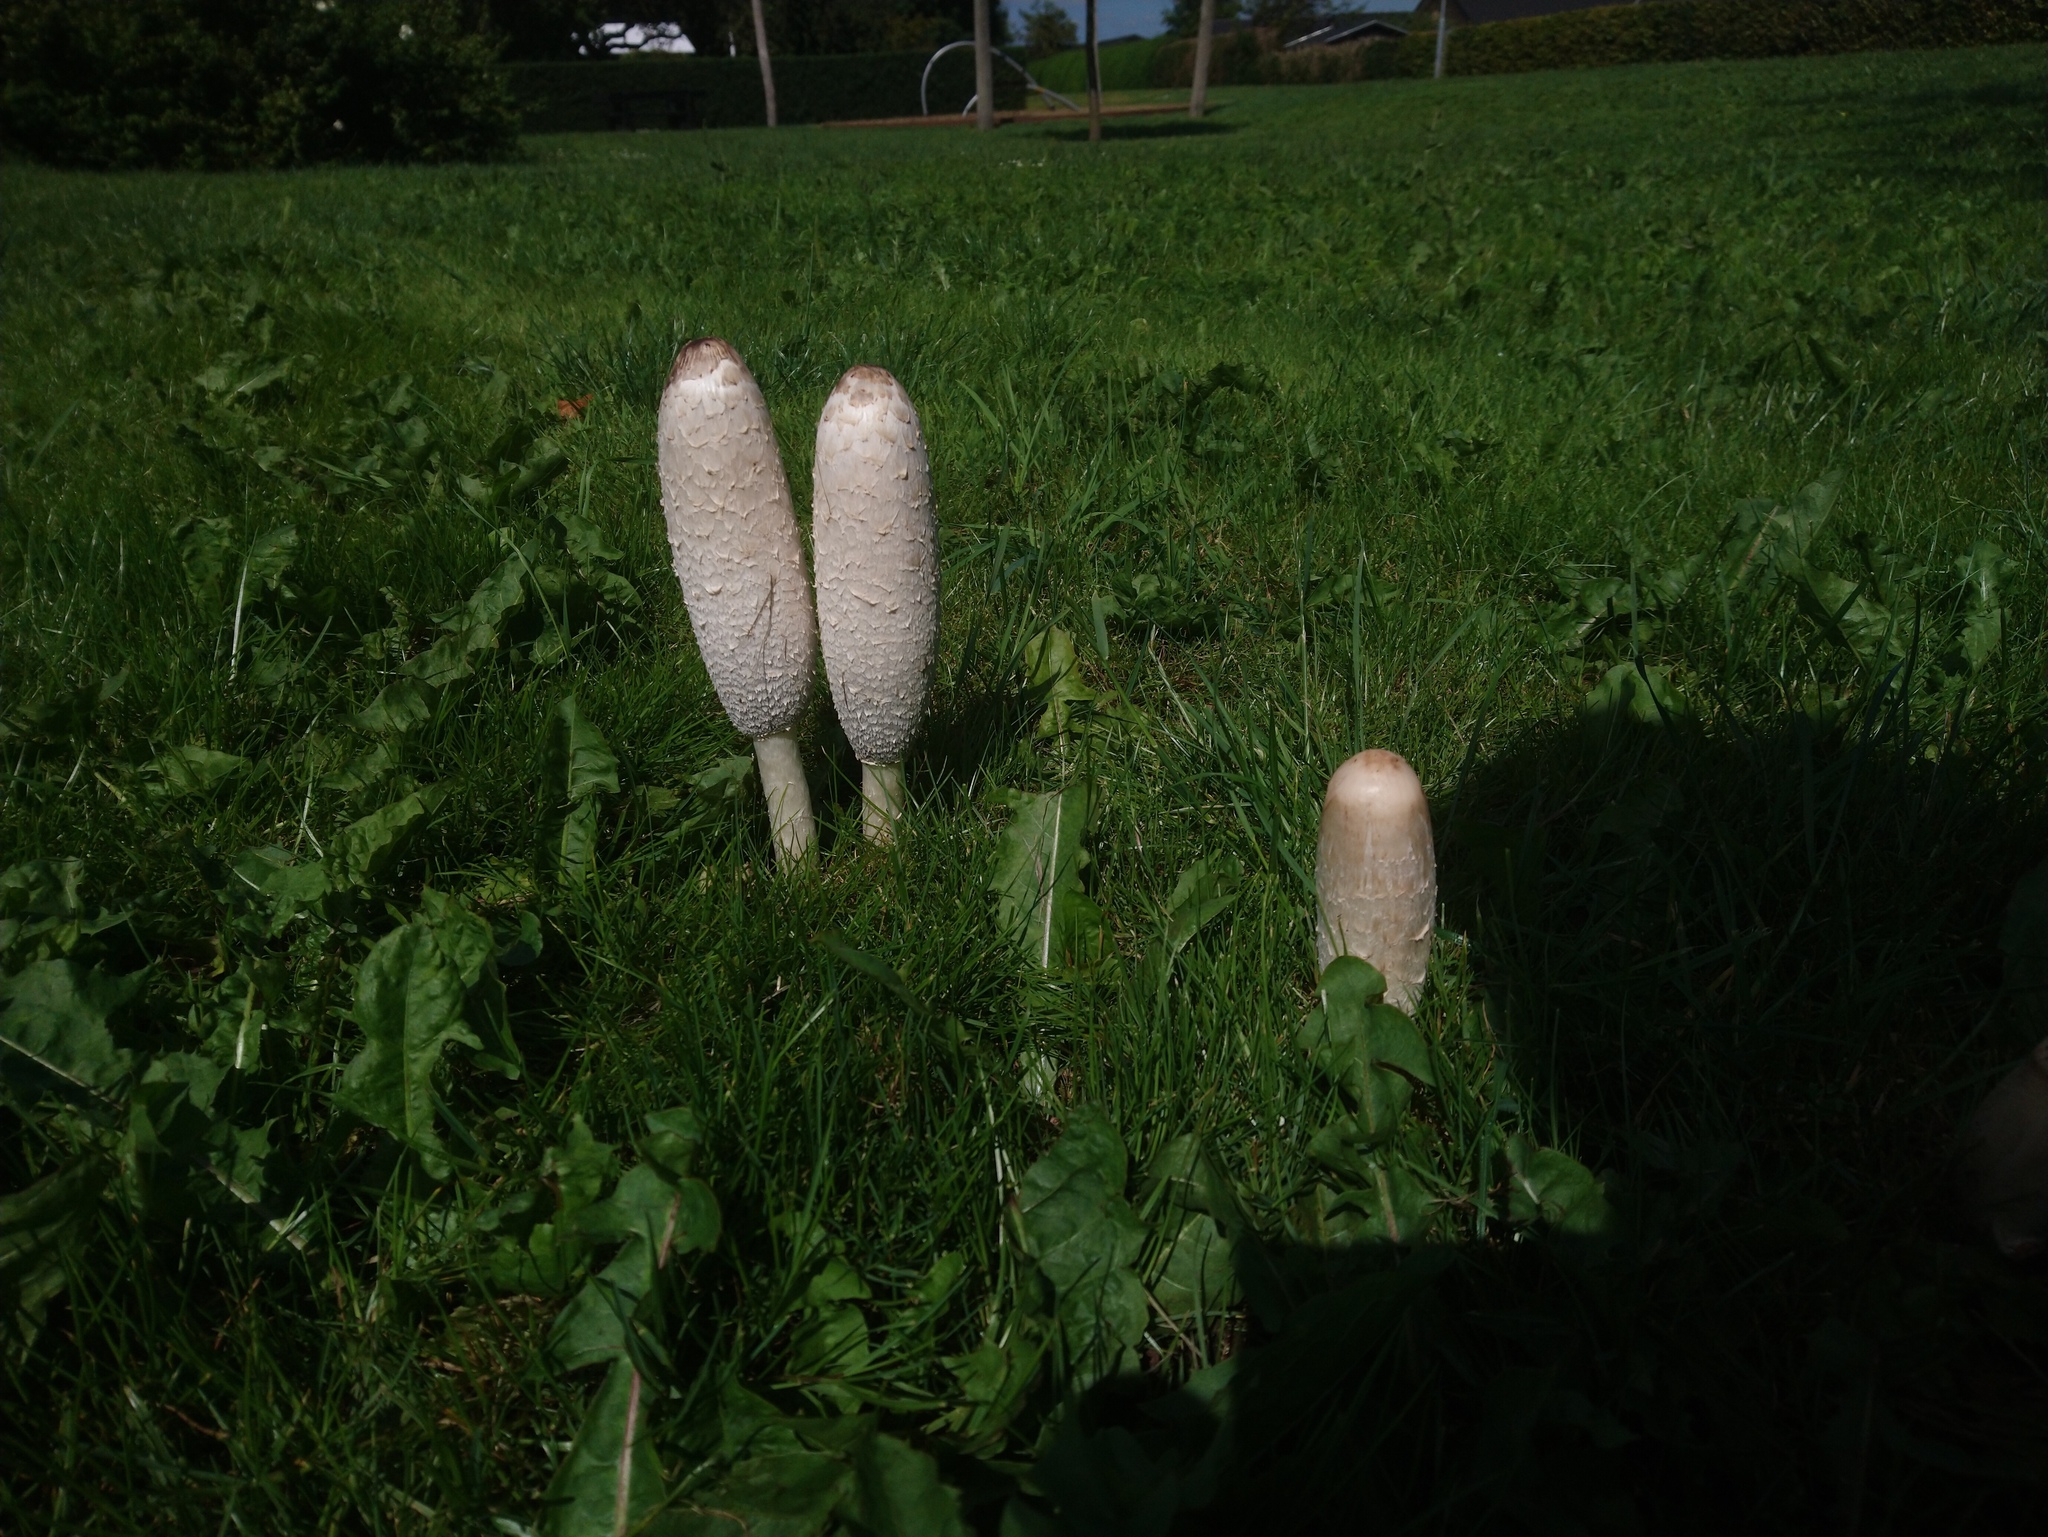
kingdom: Fungi
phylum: Basidiomycota
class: Agaricomycetes
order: Agaricales
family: Agaricaceae
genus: Coprinus
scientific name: Coprinus comatus
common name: Lawyer's wig
